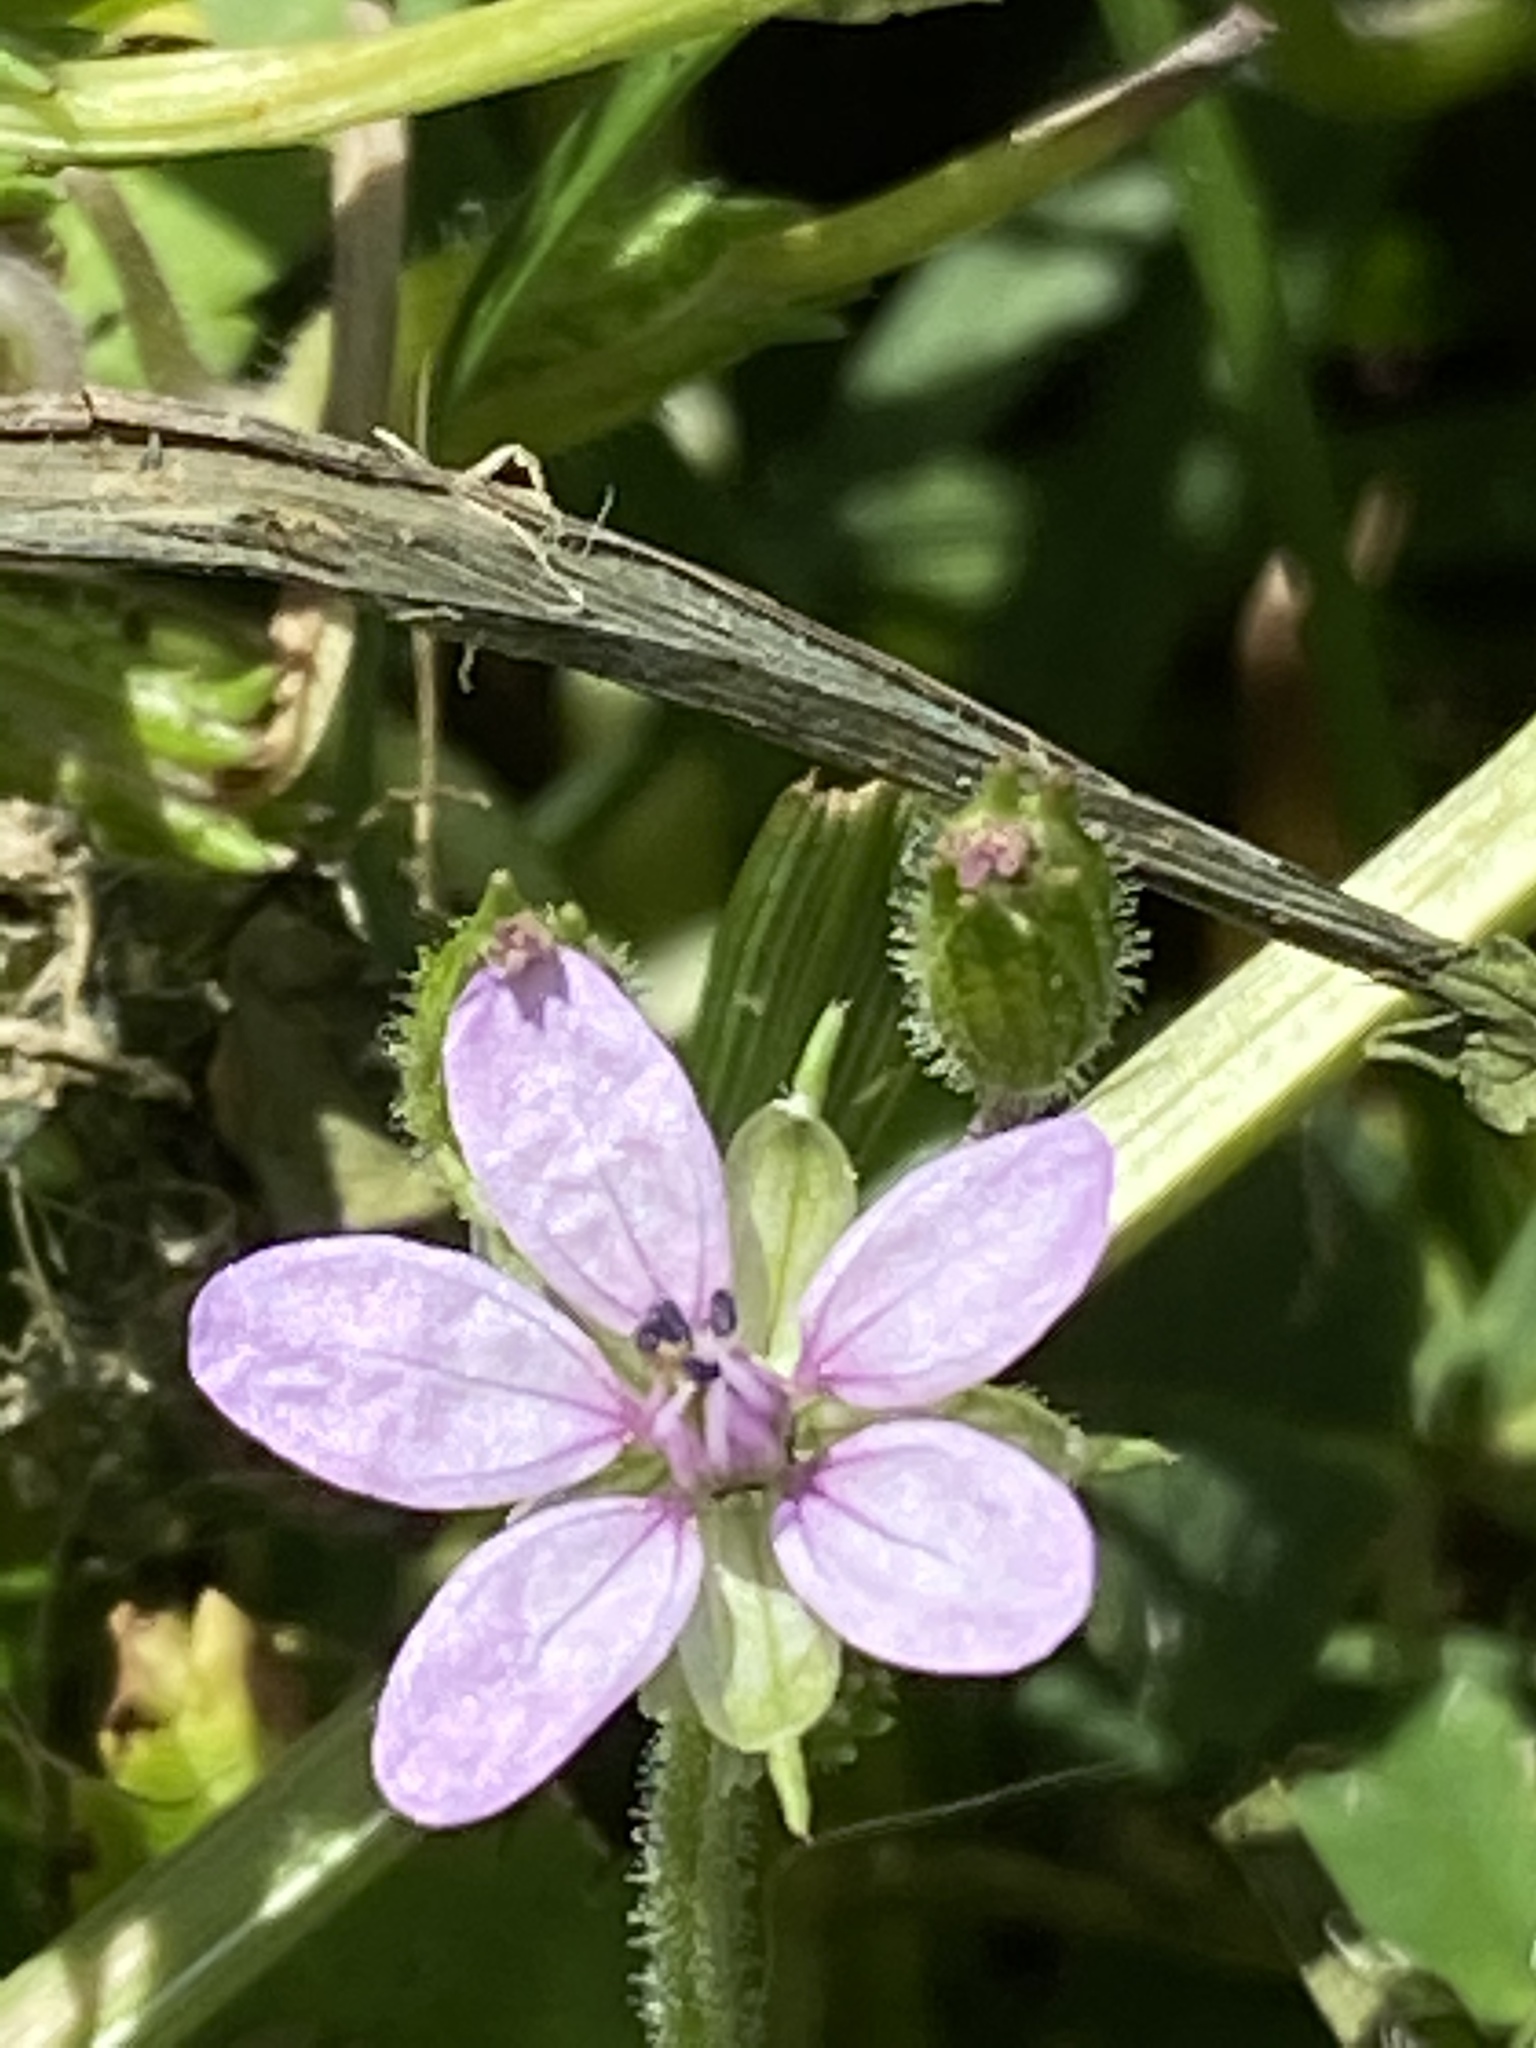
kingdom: Plantae
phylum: Tracheophyta
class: Magnoliopsida
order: Geraniales
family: Geraniaceae
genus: Erodium
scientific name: Erodium moschatum
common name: Musk stork's-bill
